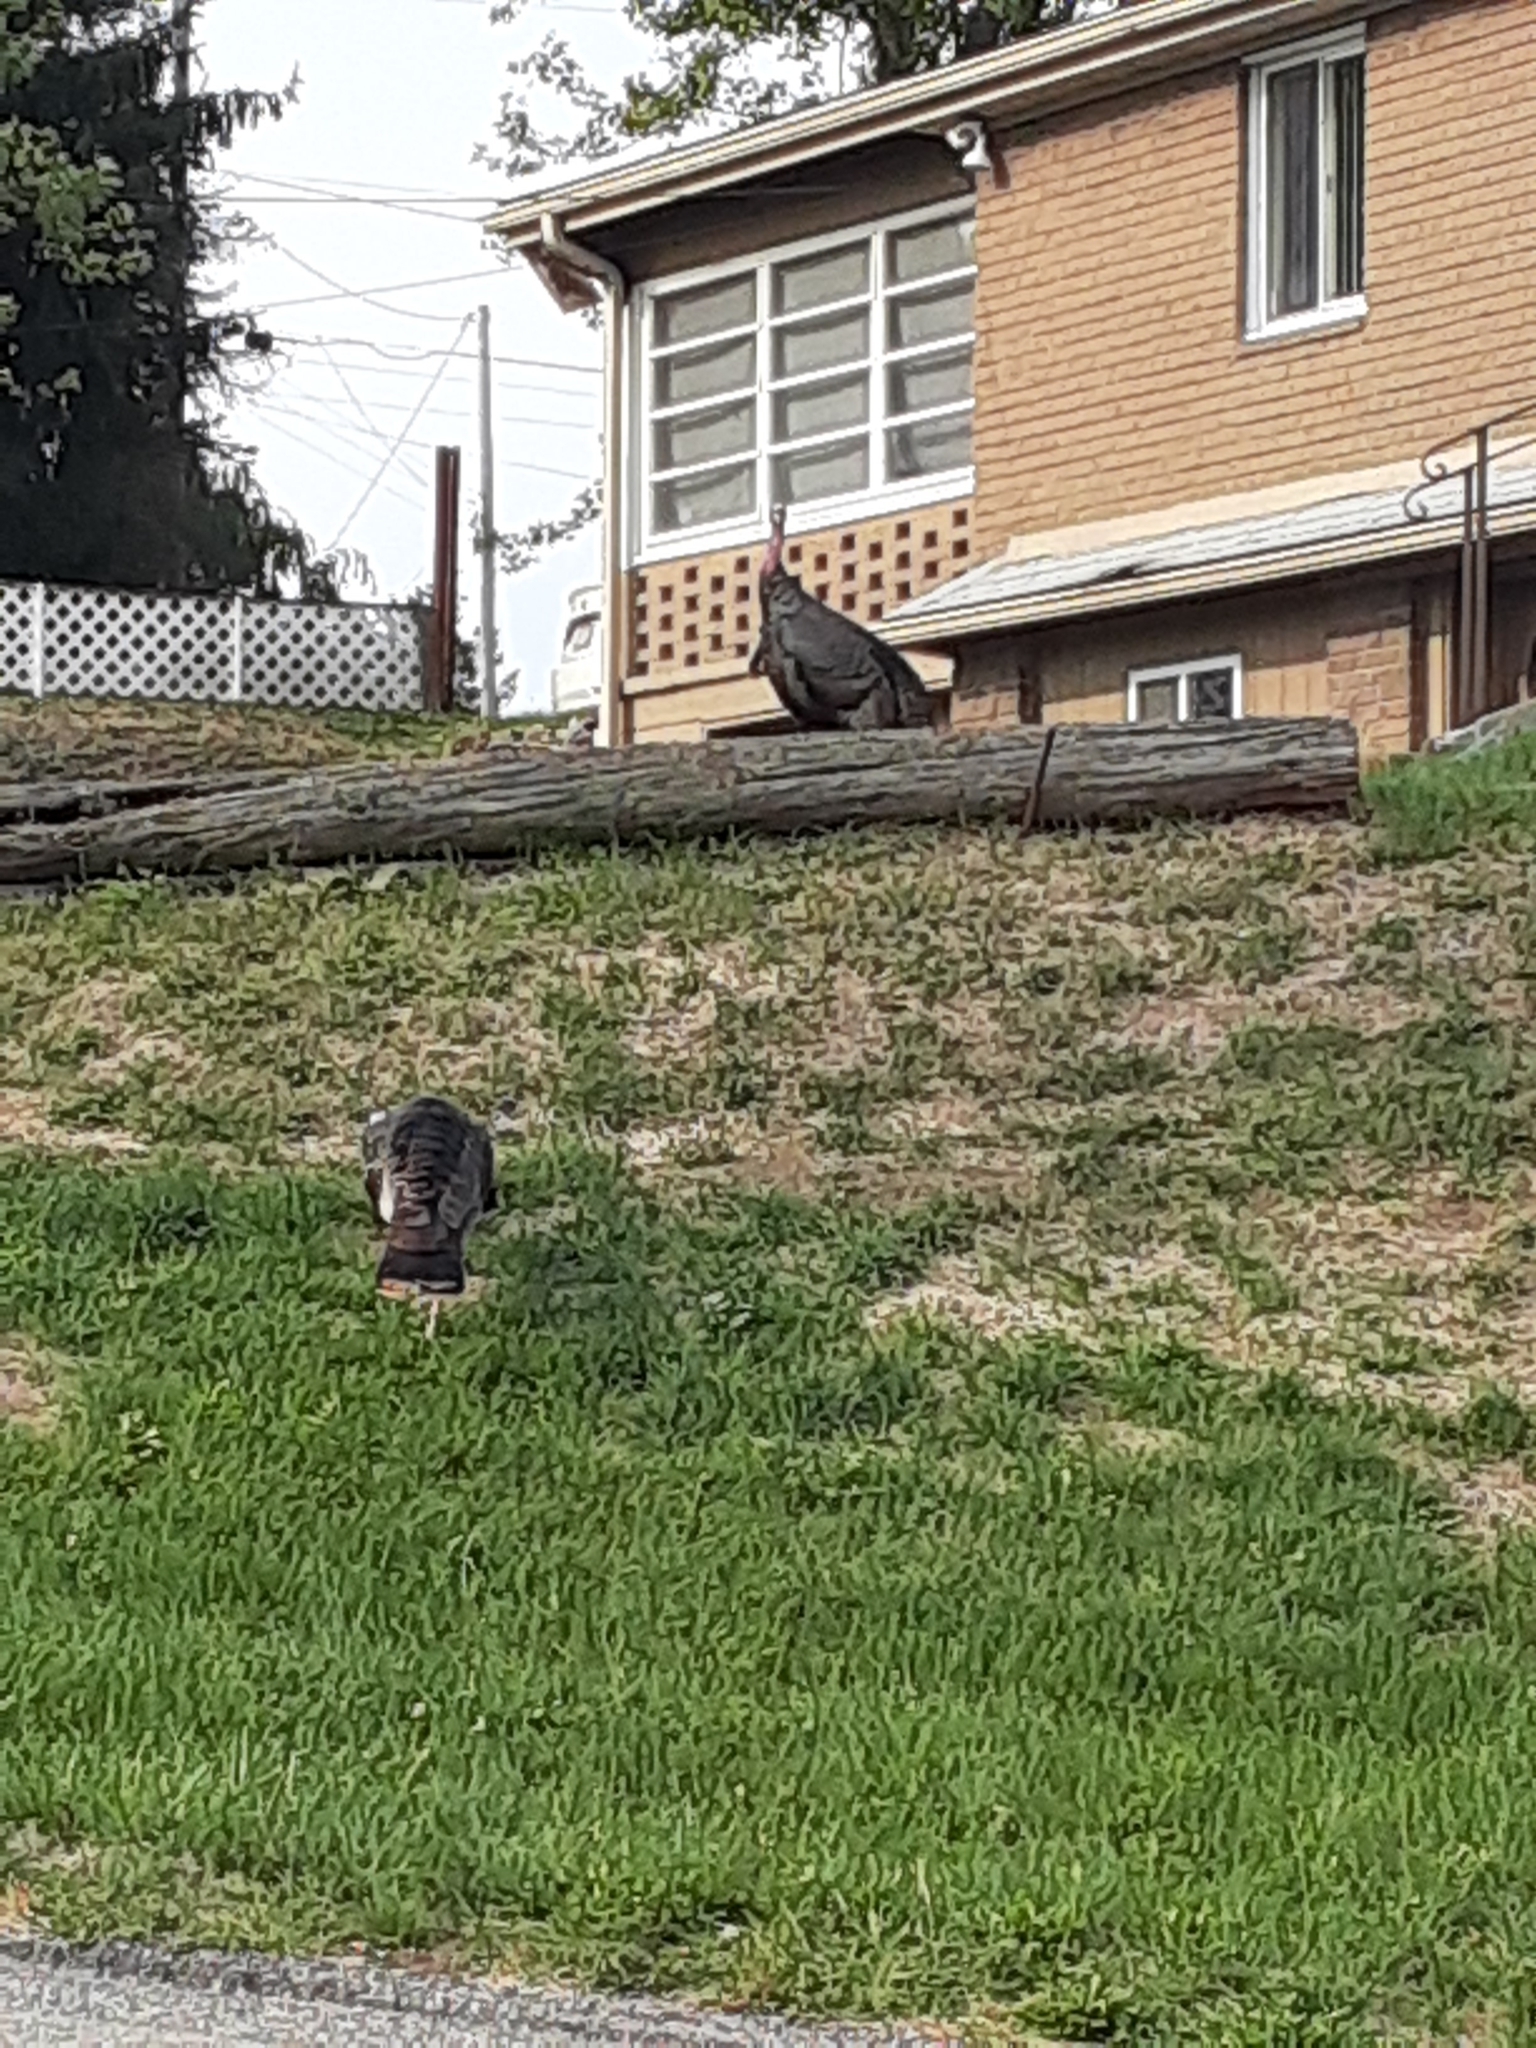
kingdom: Animalia
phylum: Chordata
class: Aves
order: Galliformes
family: Phasianidae
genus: Meleagris
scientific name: Meleagris gallopavo
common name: Wild turkey
